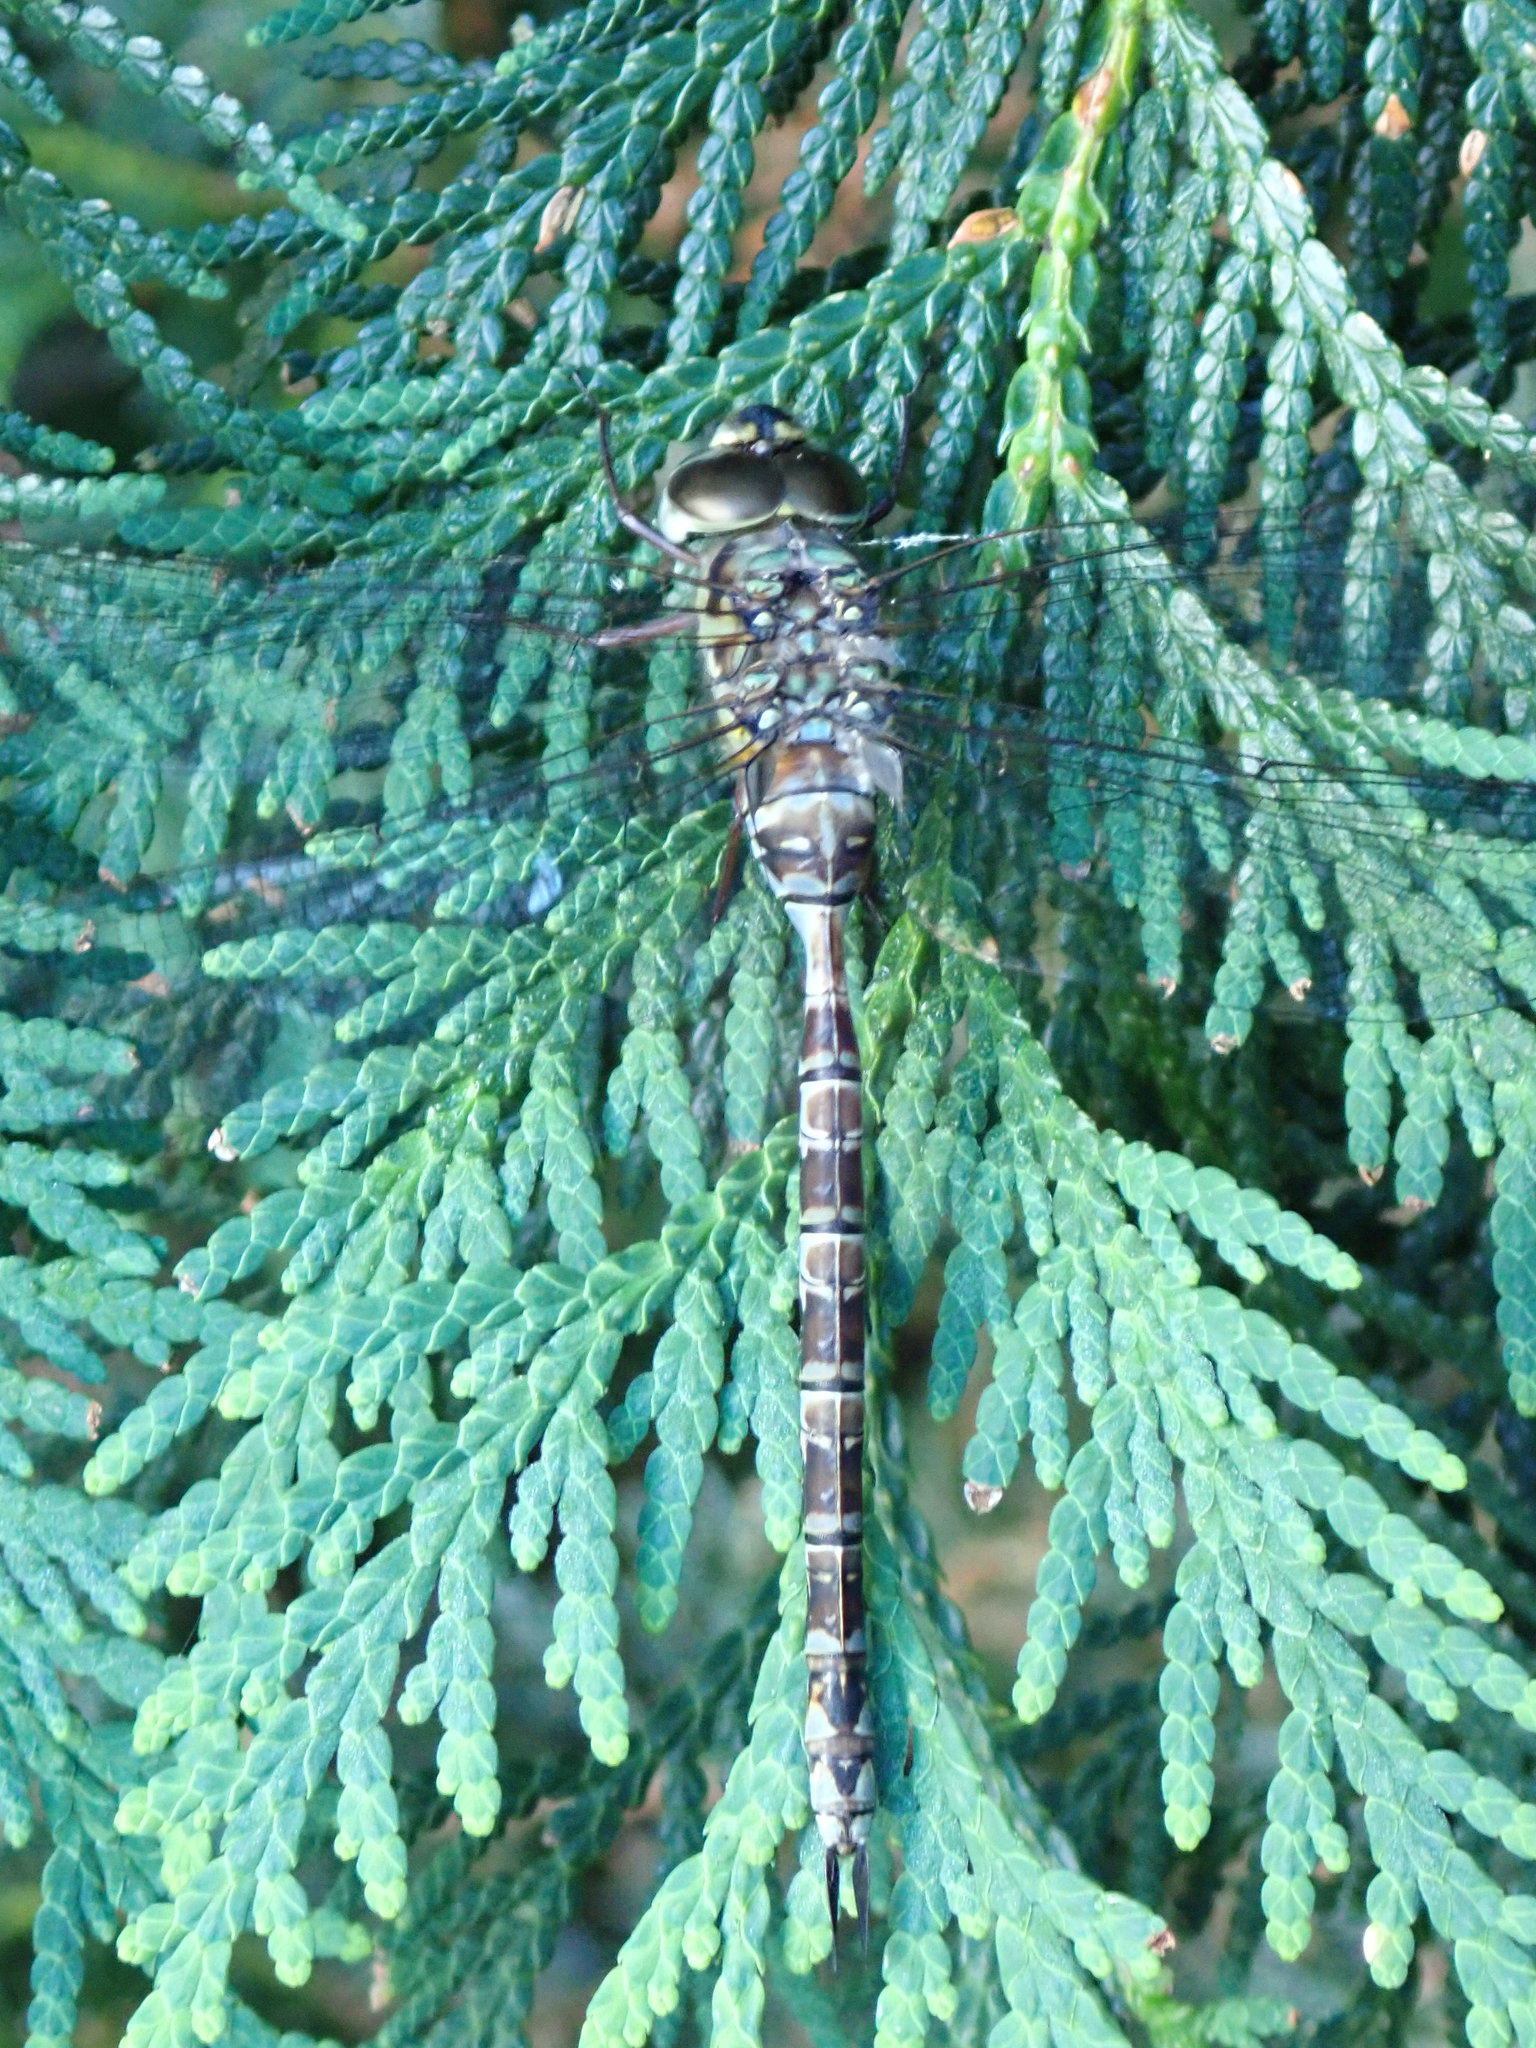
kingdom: Animalia
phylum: Arthropoda
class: Insecta
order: Odonata
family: Aeshnidae
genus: Aeshna
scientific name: Aeshna clepsydra
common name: Mottled darner
